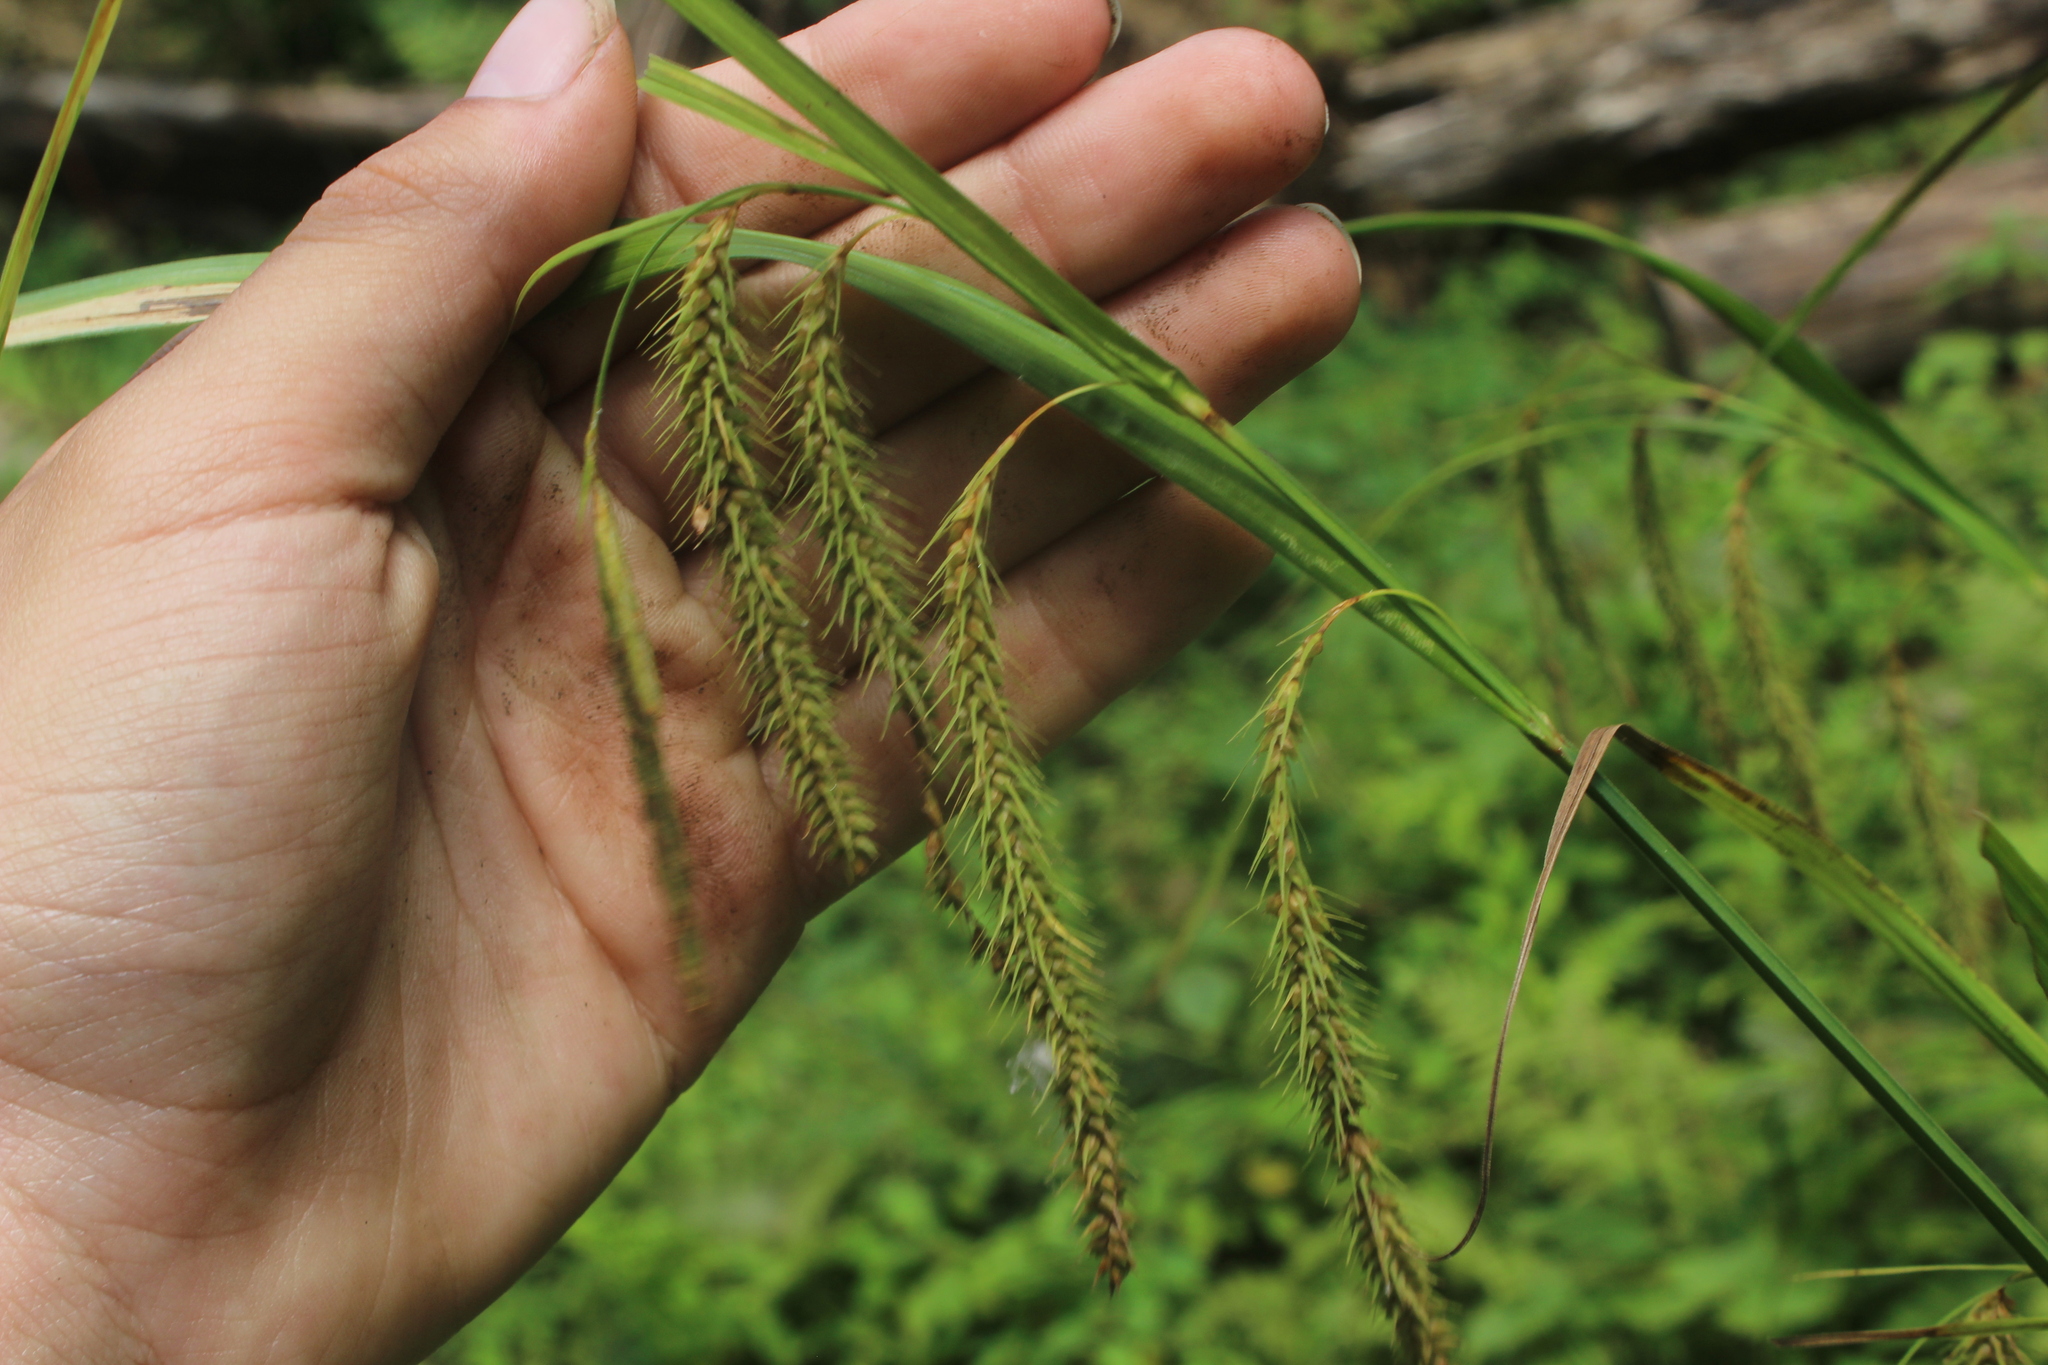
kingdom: Plantae
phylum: Tracheophyta
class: Liliopsida
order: Poales
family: Cyperaceae
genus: Carex
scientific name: Carex gynandra
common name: Nodding sedge
